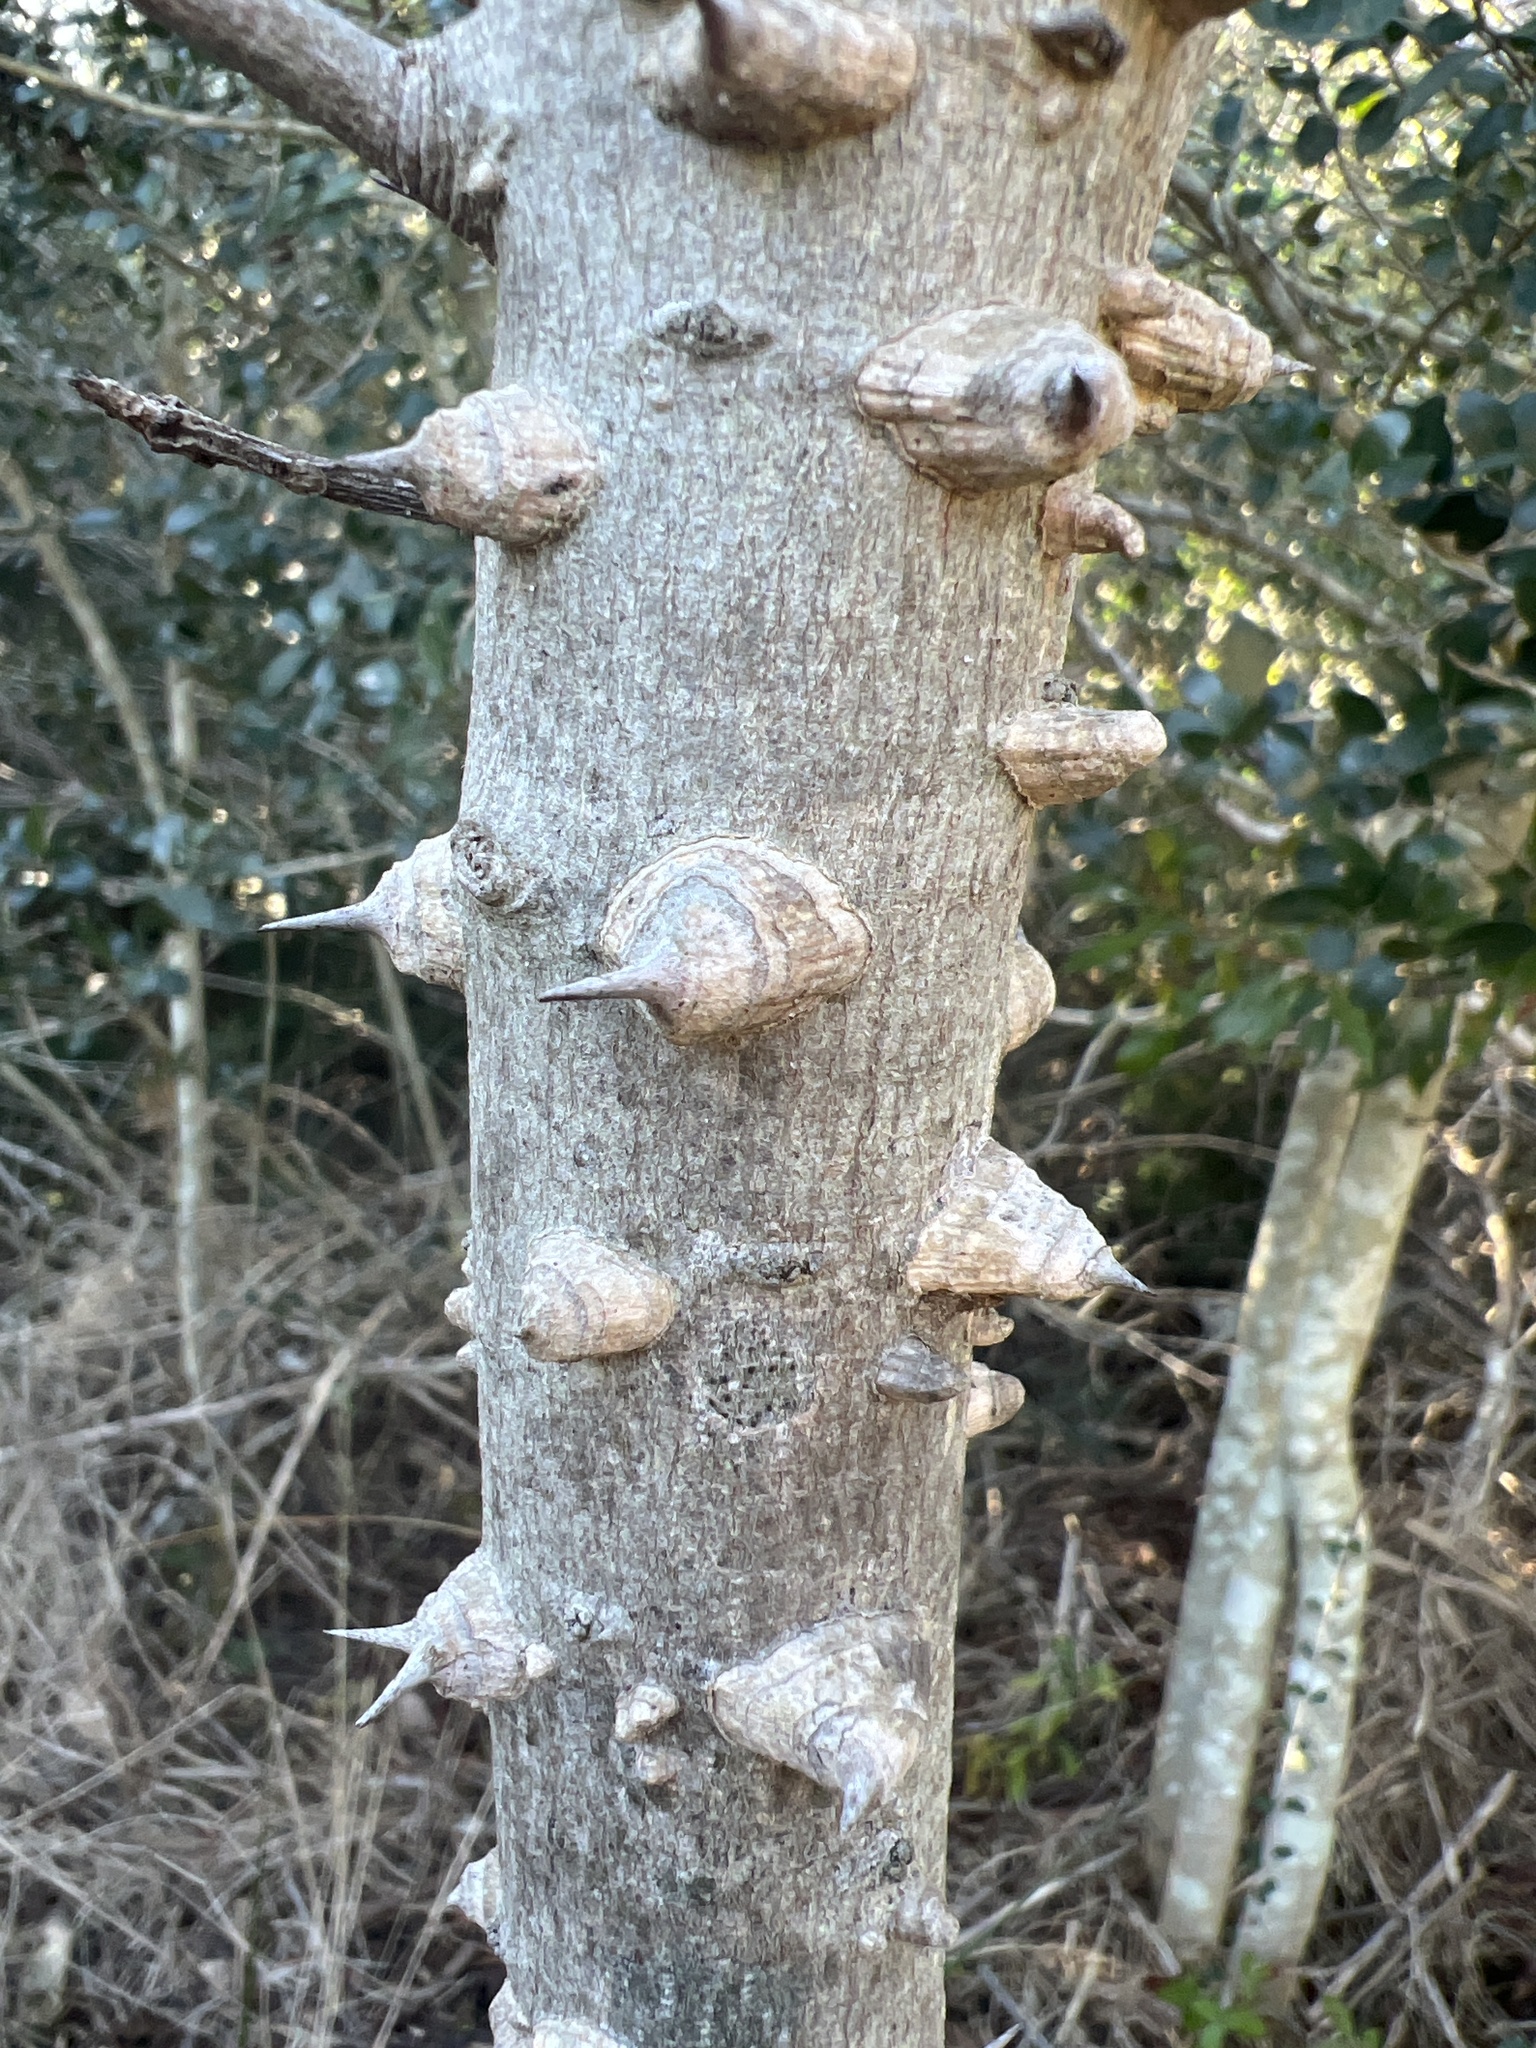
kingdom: Plantae
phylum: Tracheophyta
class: Magnoliopsida
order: Sapindales
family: Rutaceae
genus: Zanthoxylum
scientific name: Zanthoxylum clava-herculis
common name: Hercules'-club
